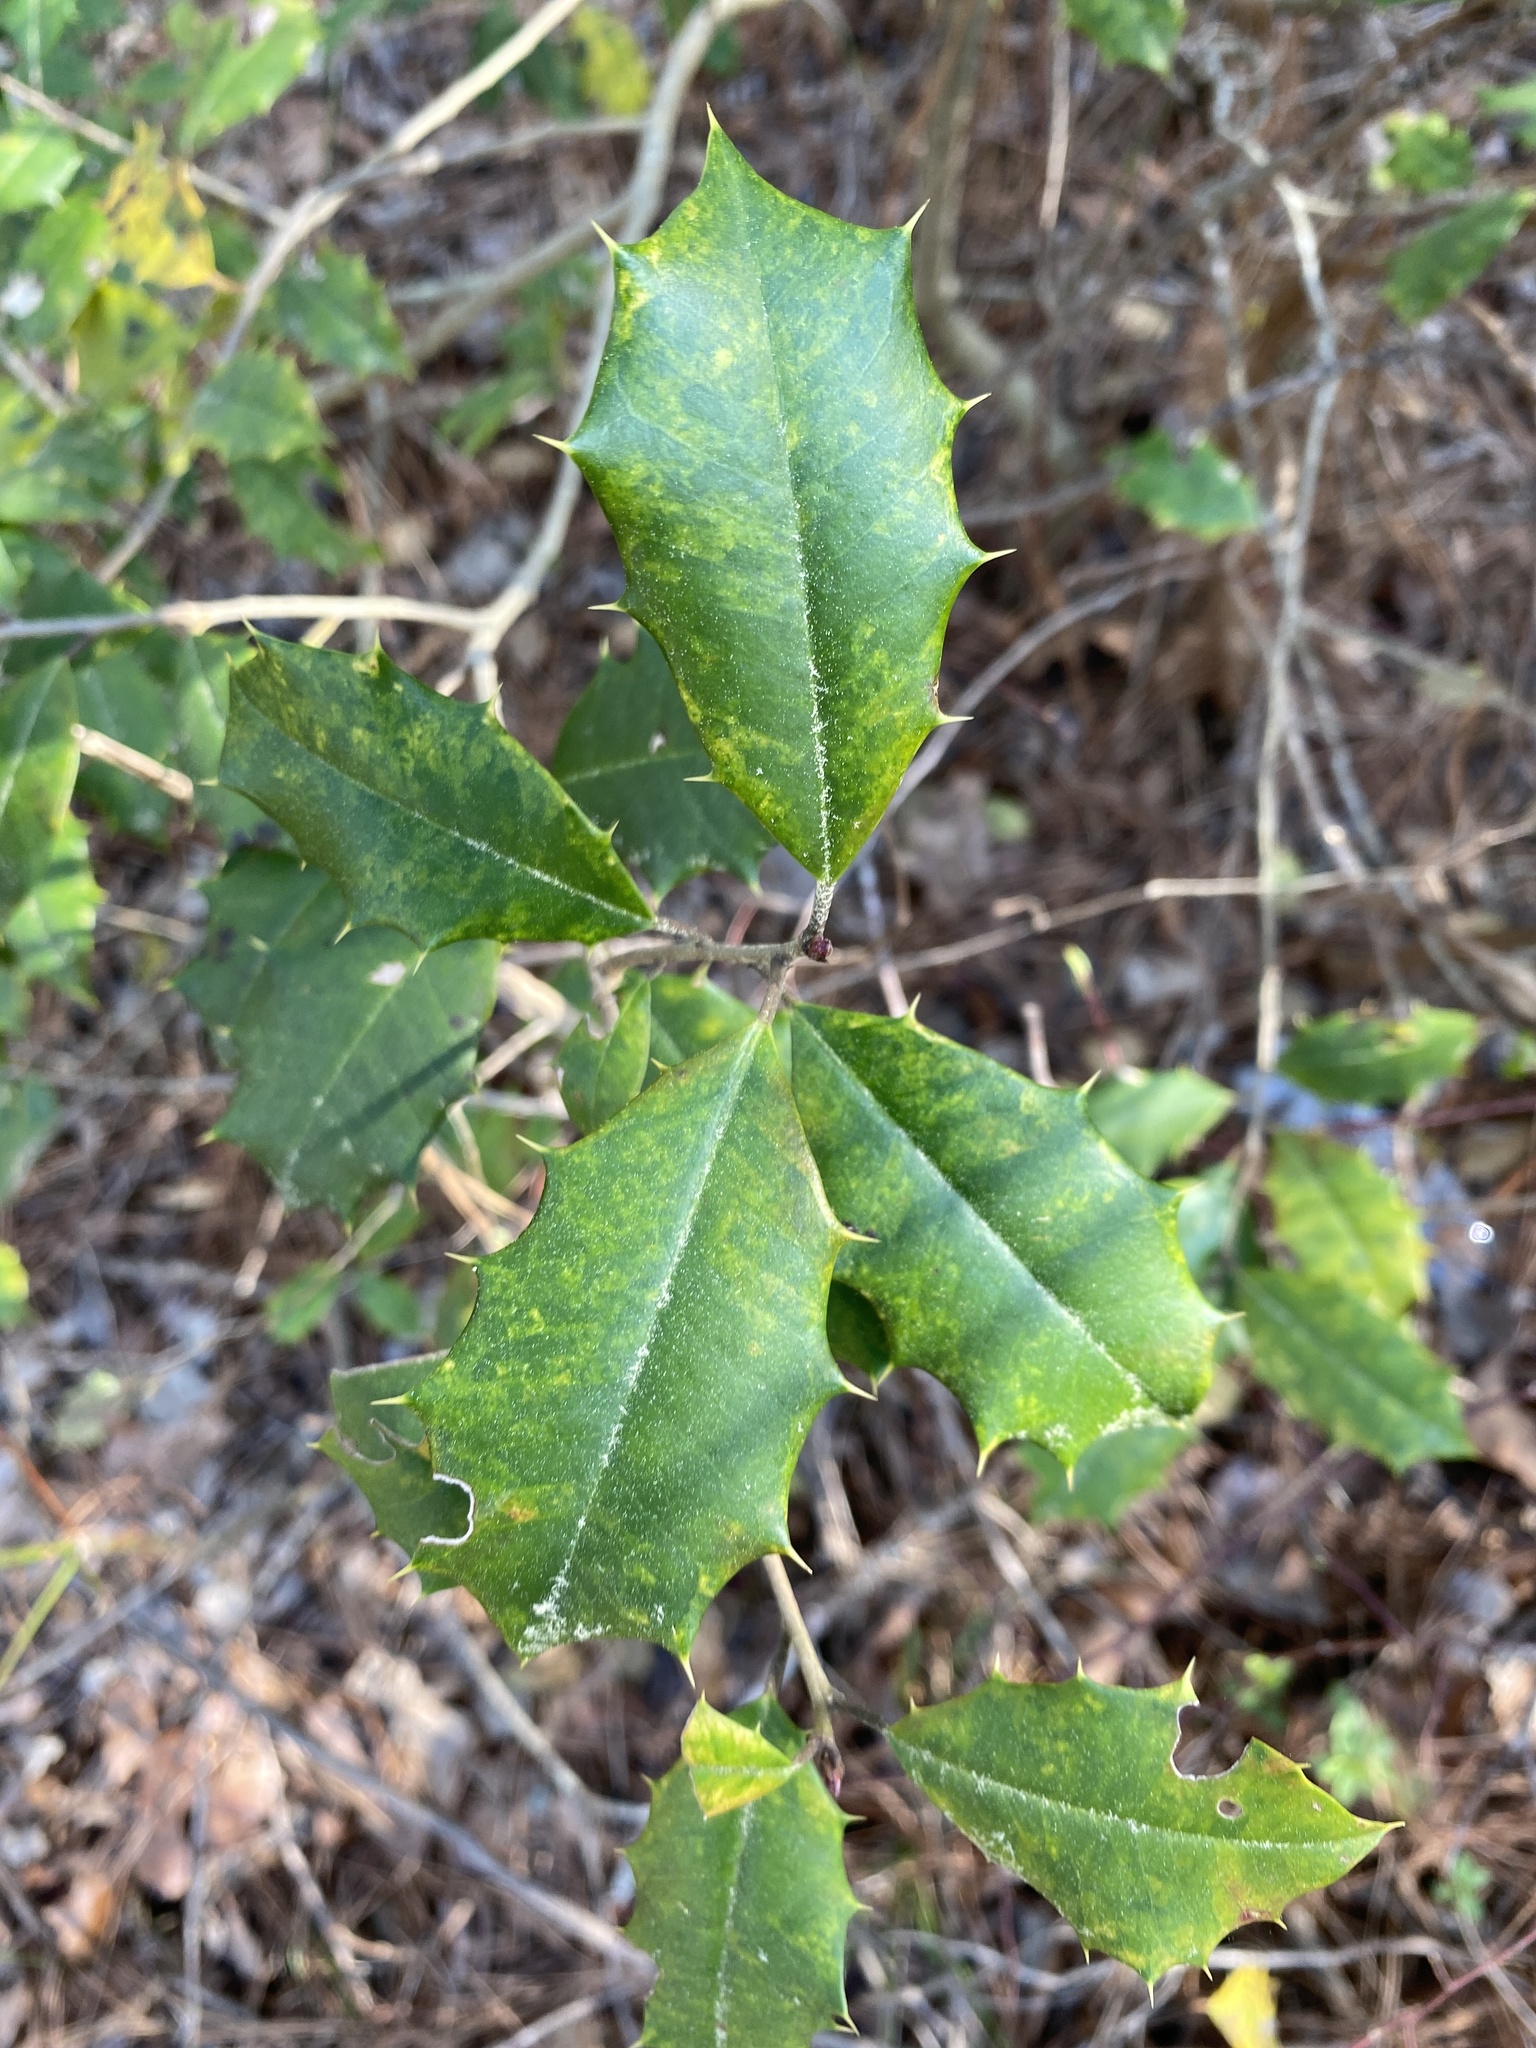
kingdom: Plantae
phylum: Tracheophyta
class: Magnoliopsida
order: Aquifoliales
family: Aquifoliaceae
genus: Ilex
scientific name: Ilex opaca
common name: American holly
